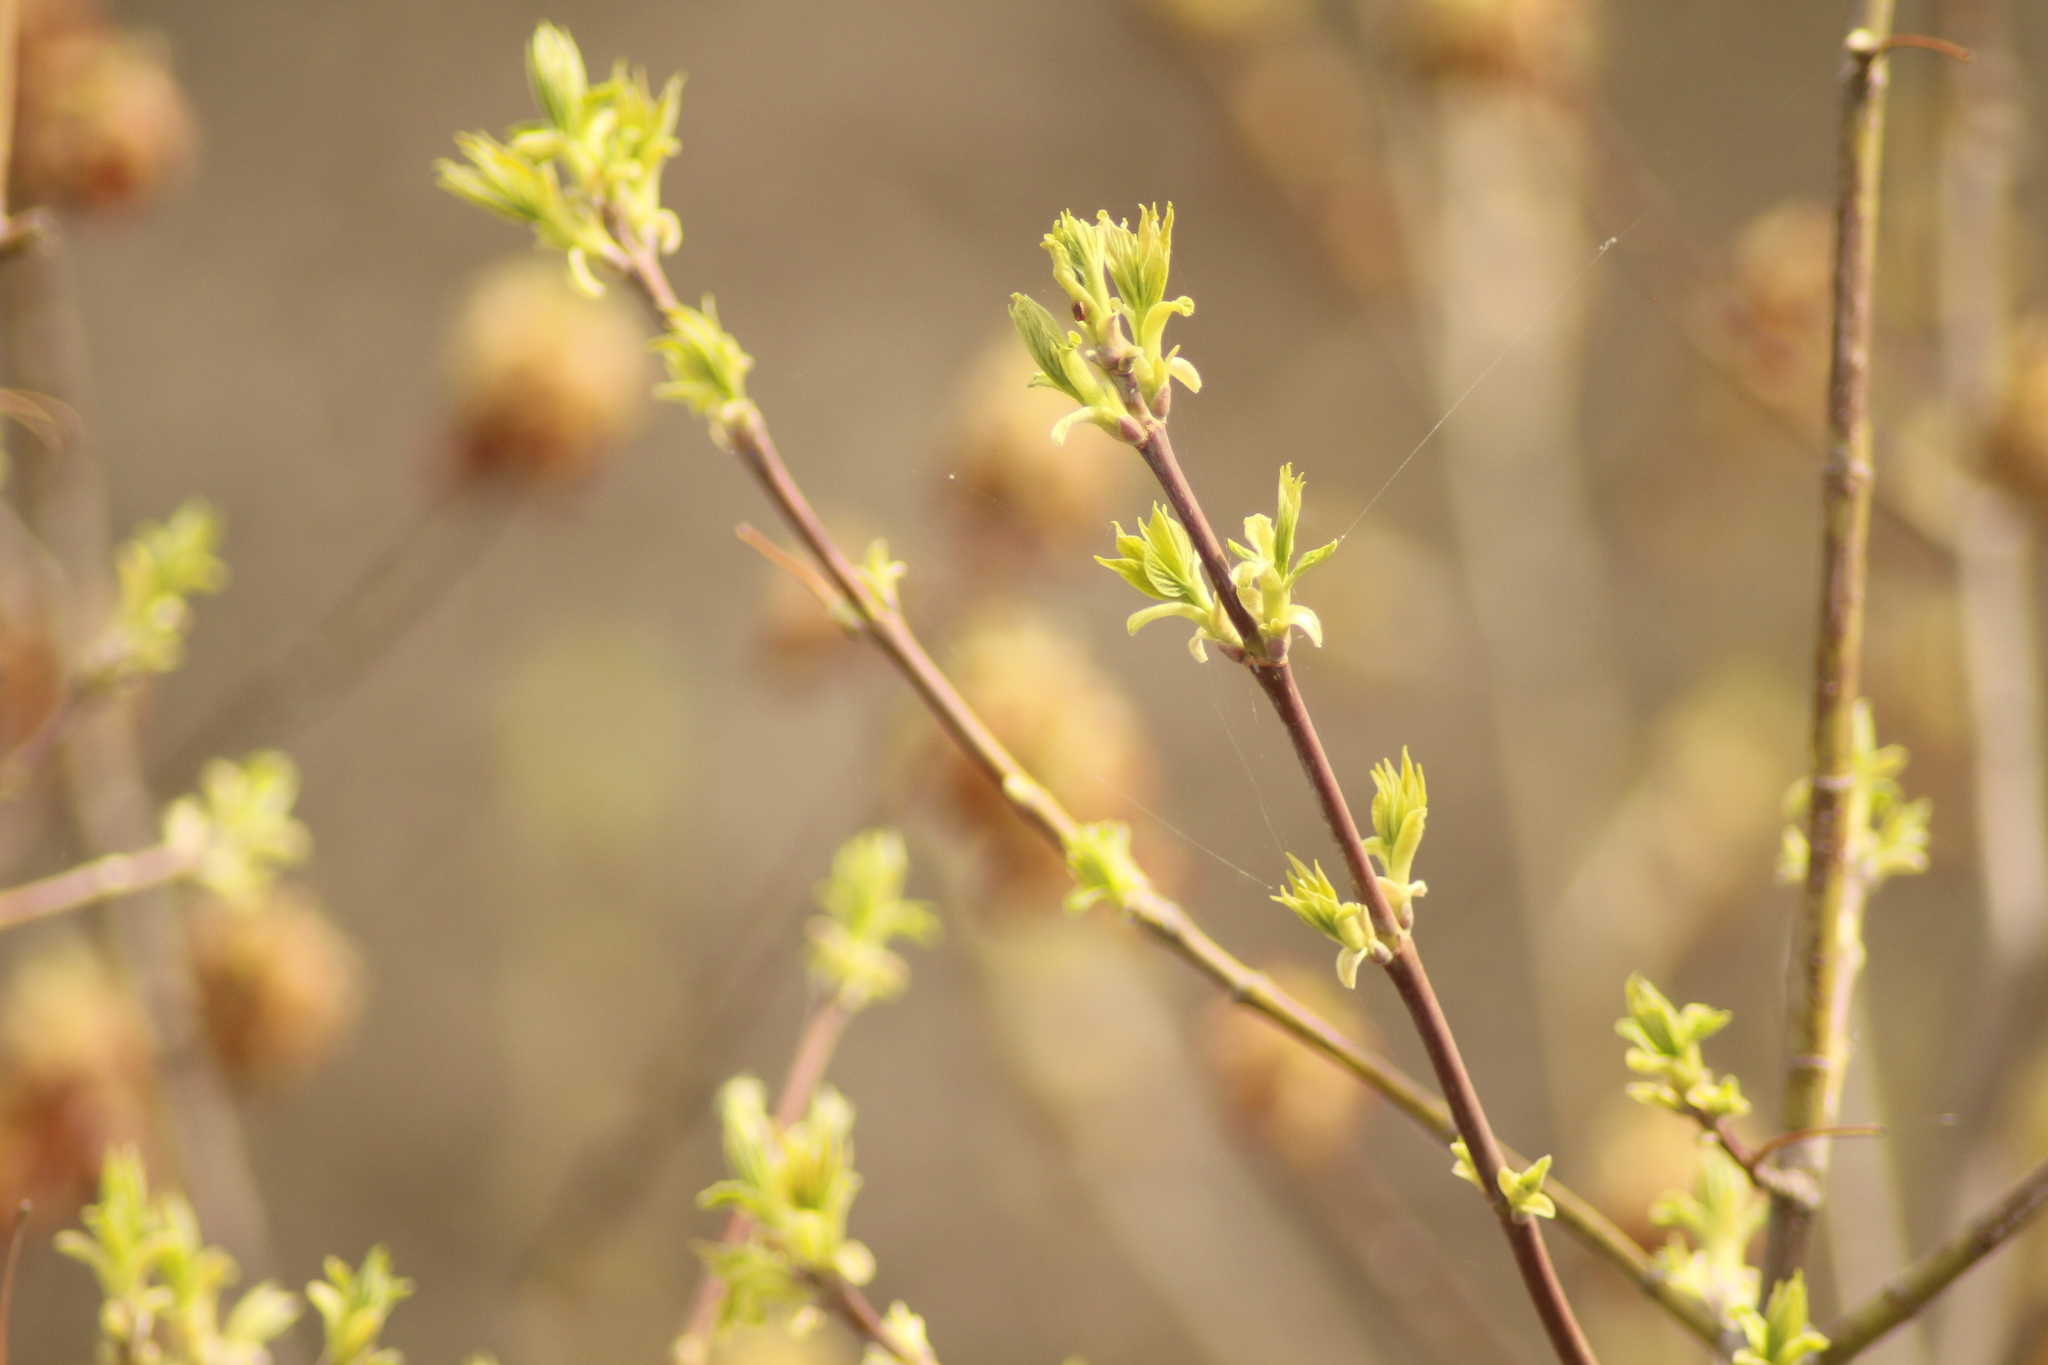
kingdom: Plantae
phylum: Tracheophyta
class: Magnoliopsida
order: Sapindales
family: Sapindaceae
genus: Acer
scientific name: Acer negundo
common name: Ashleaf maple
